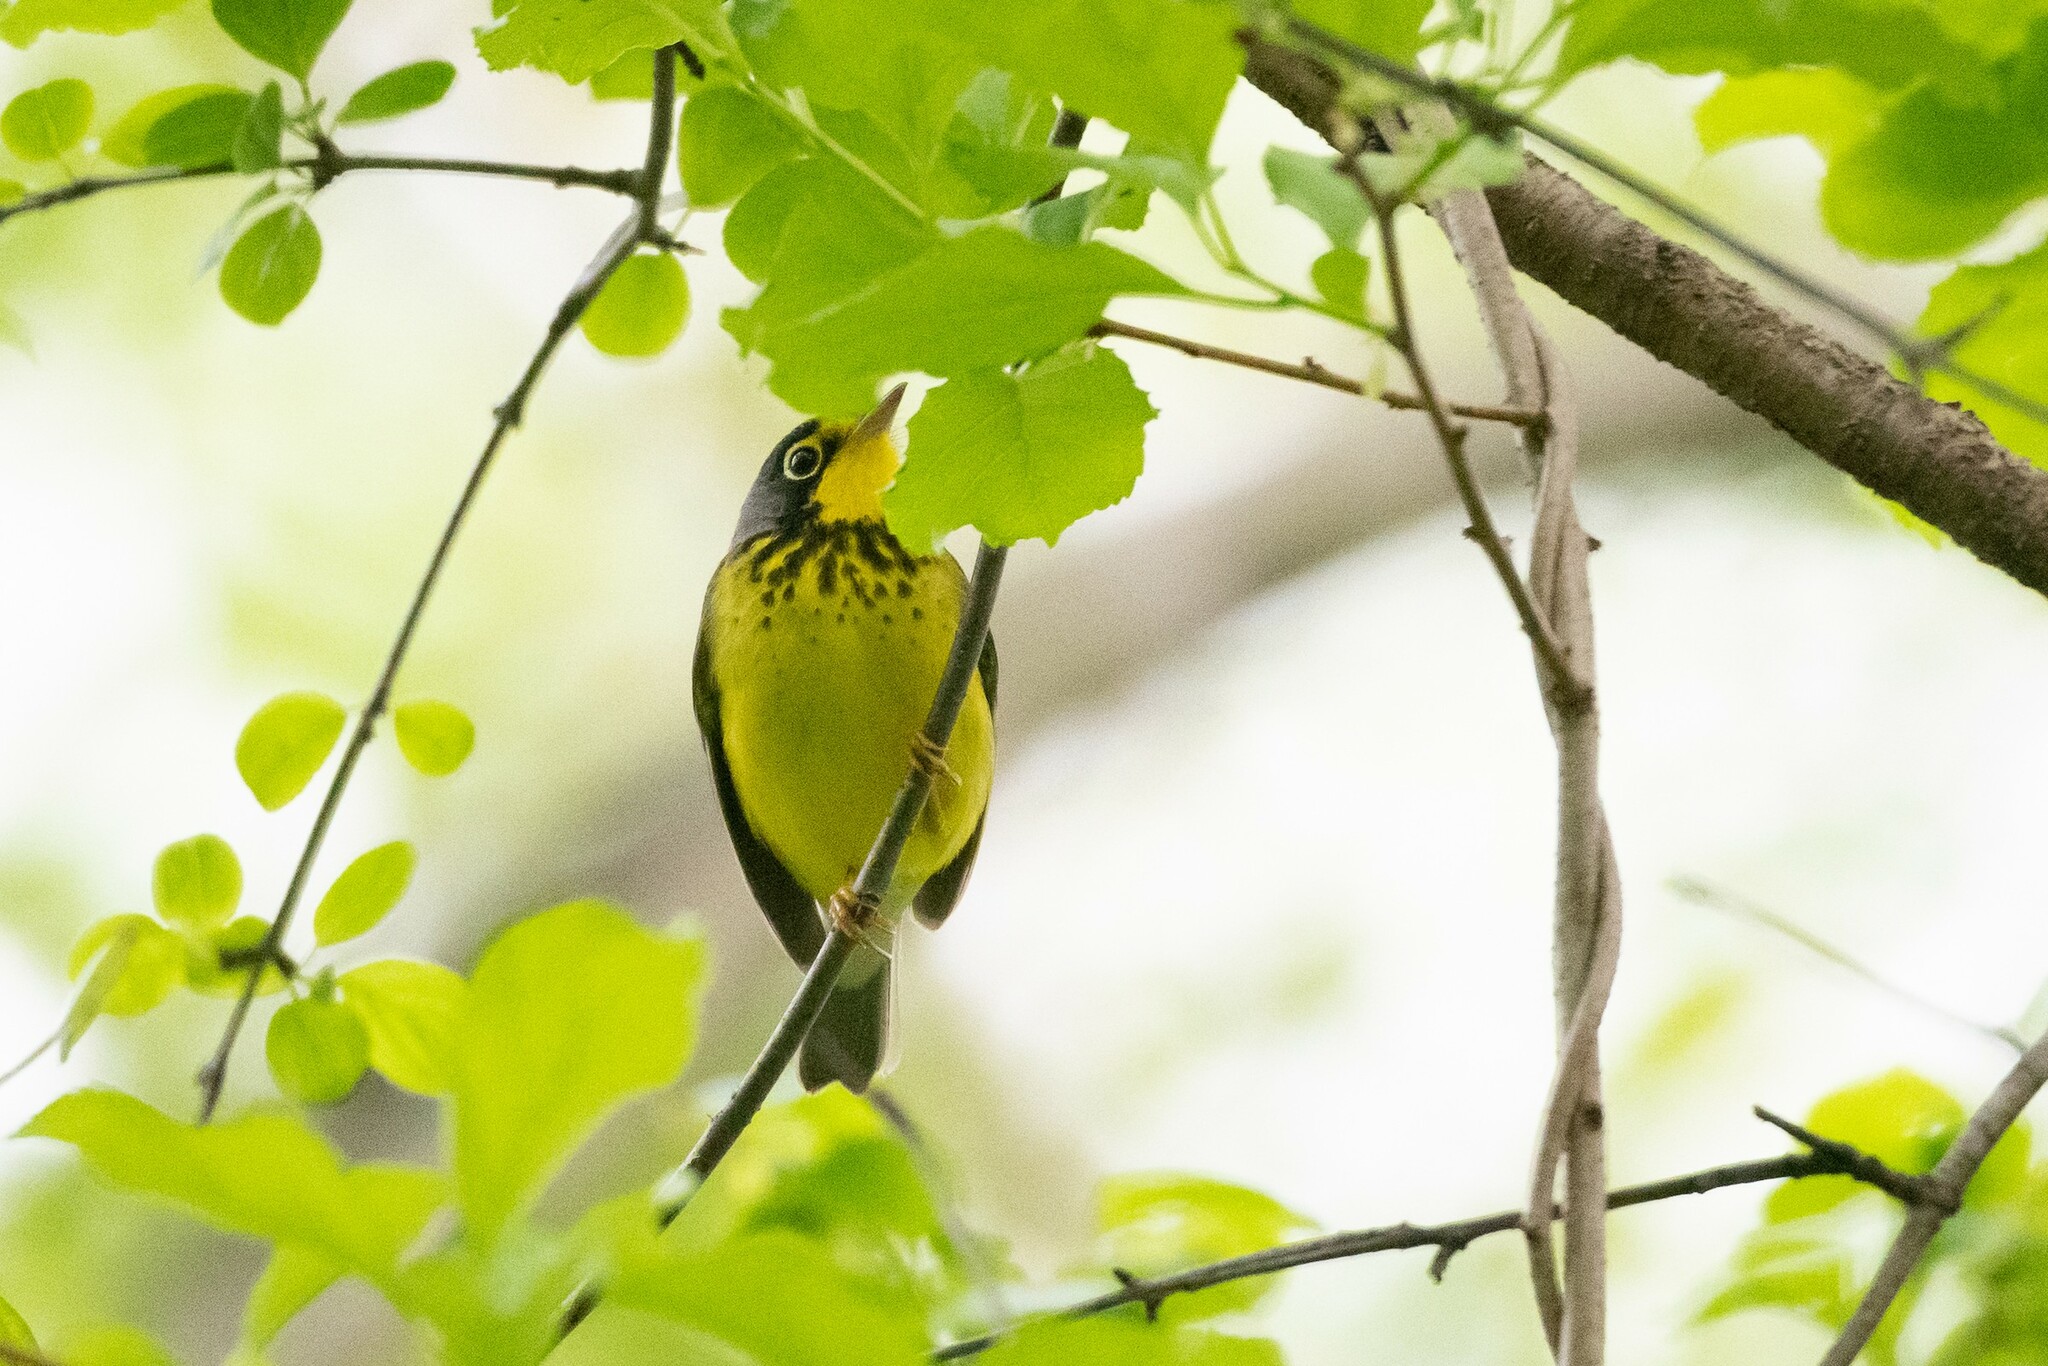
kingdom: Animalia
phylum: Chordata
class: Aves
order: Passeriformes
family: Parulidae
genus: Cardellina
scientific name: Cardellina canadensis
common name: Canada warbler
